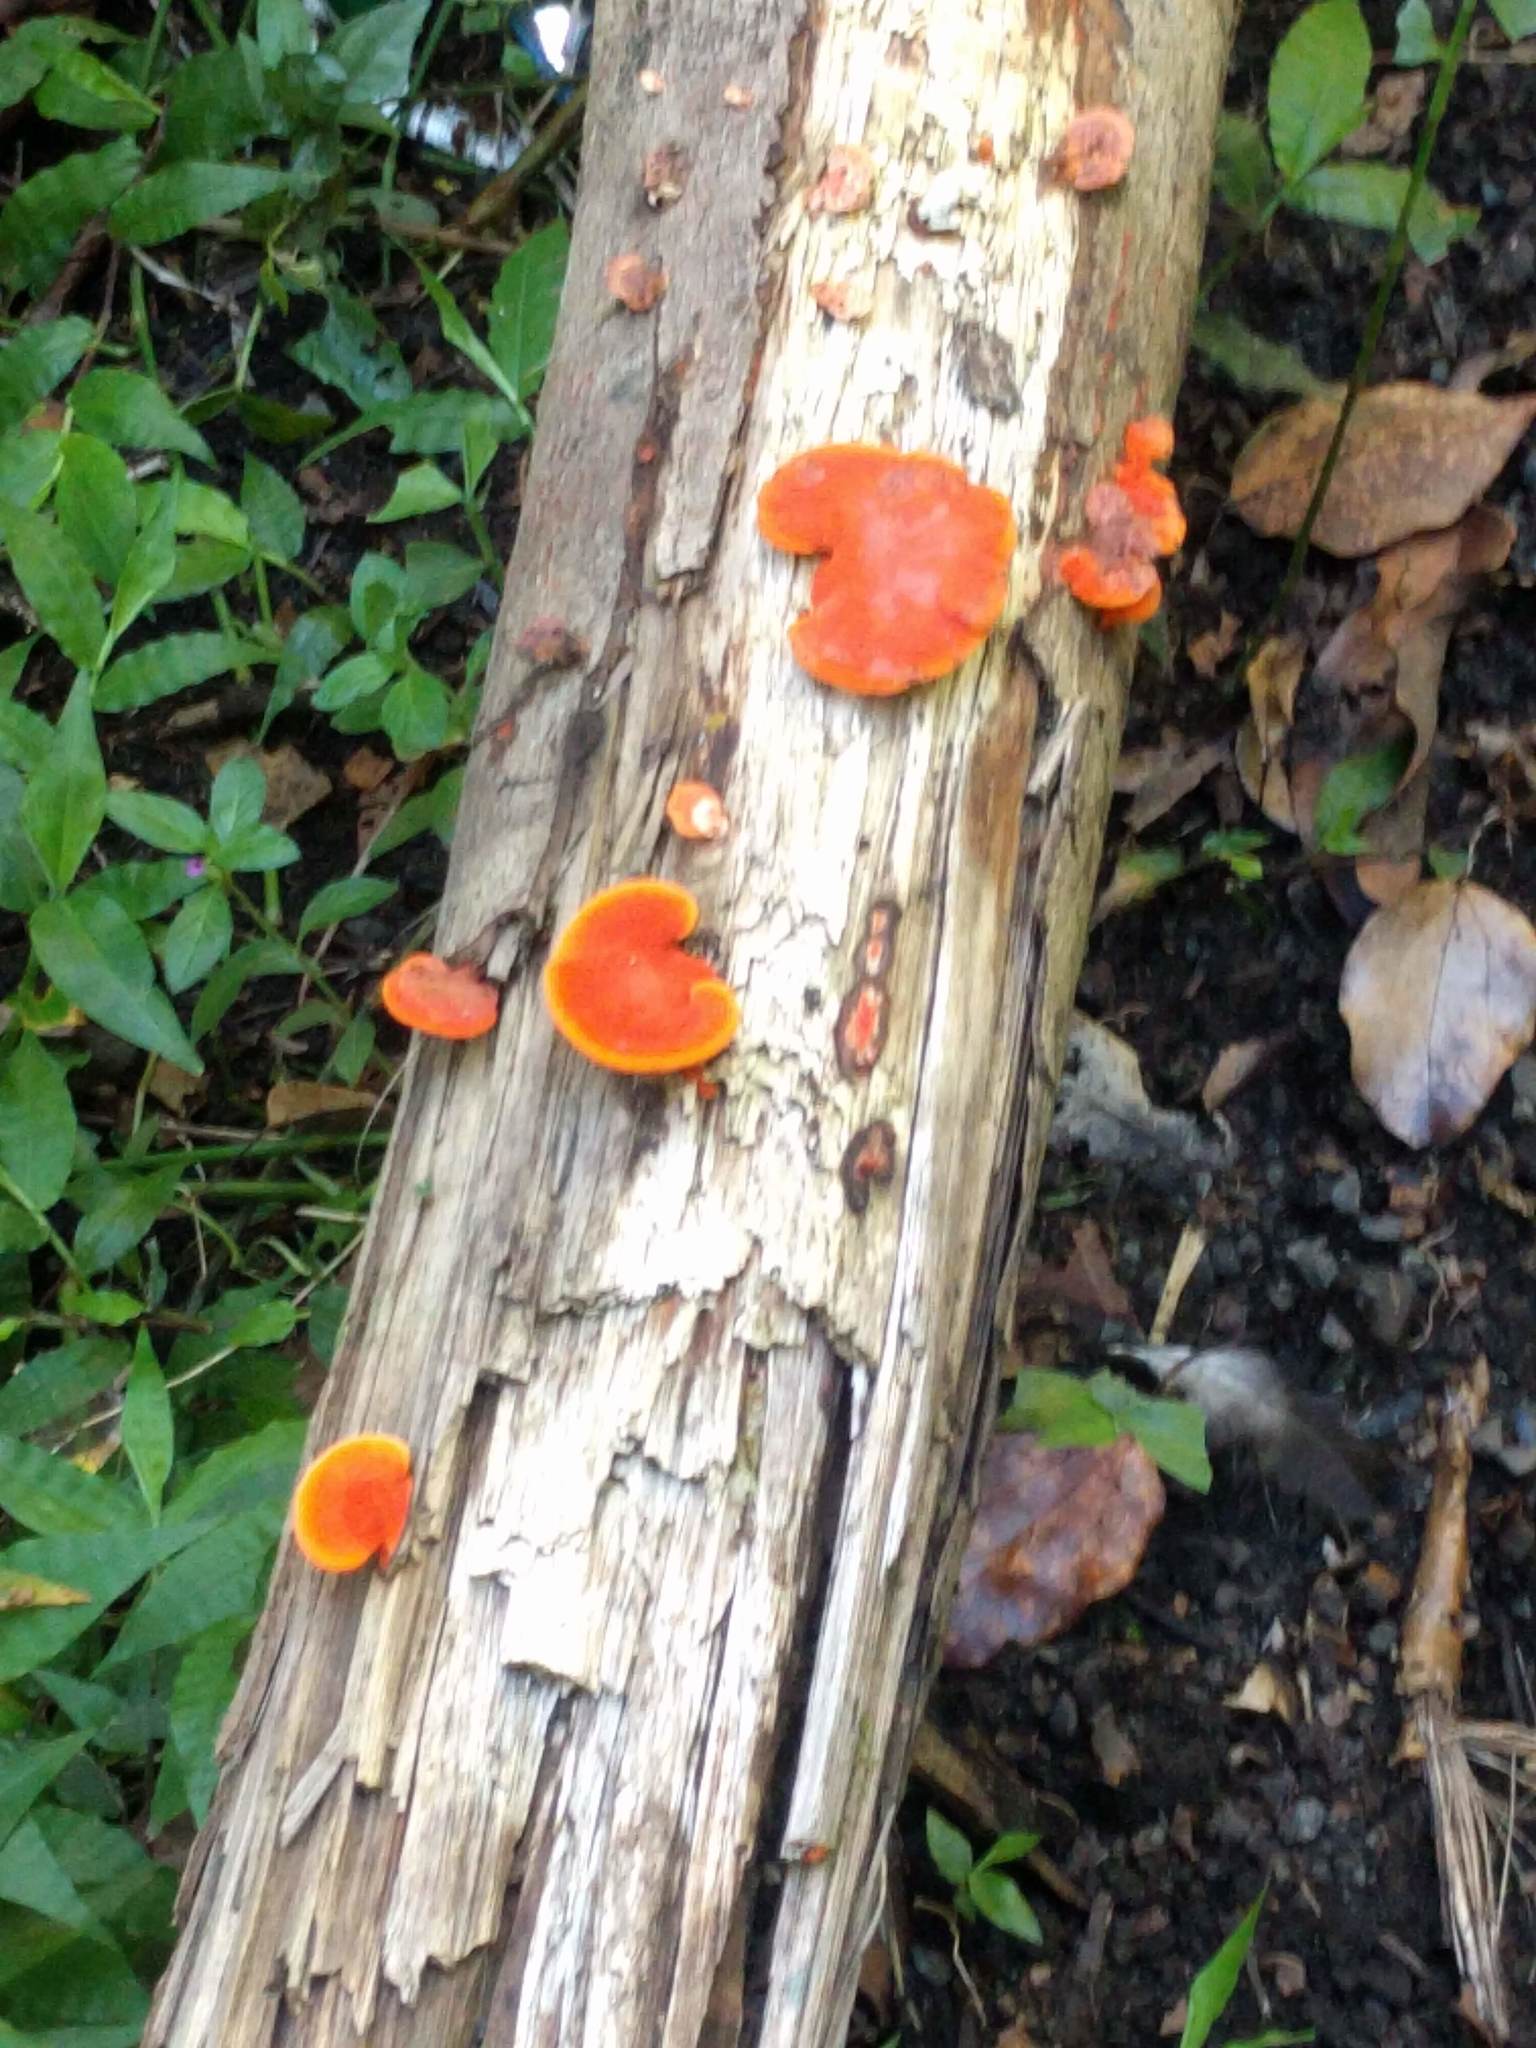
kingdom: Fungi
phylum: Basidiomycota
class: Agaricomycetes
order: Polyporales
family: Polyporaceae
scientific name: Polyporaceae
